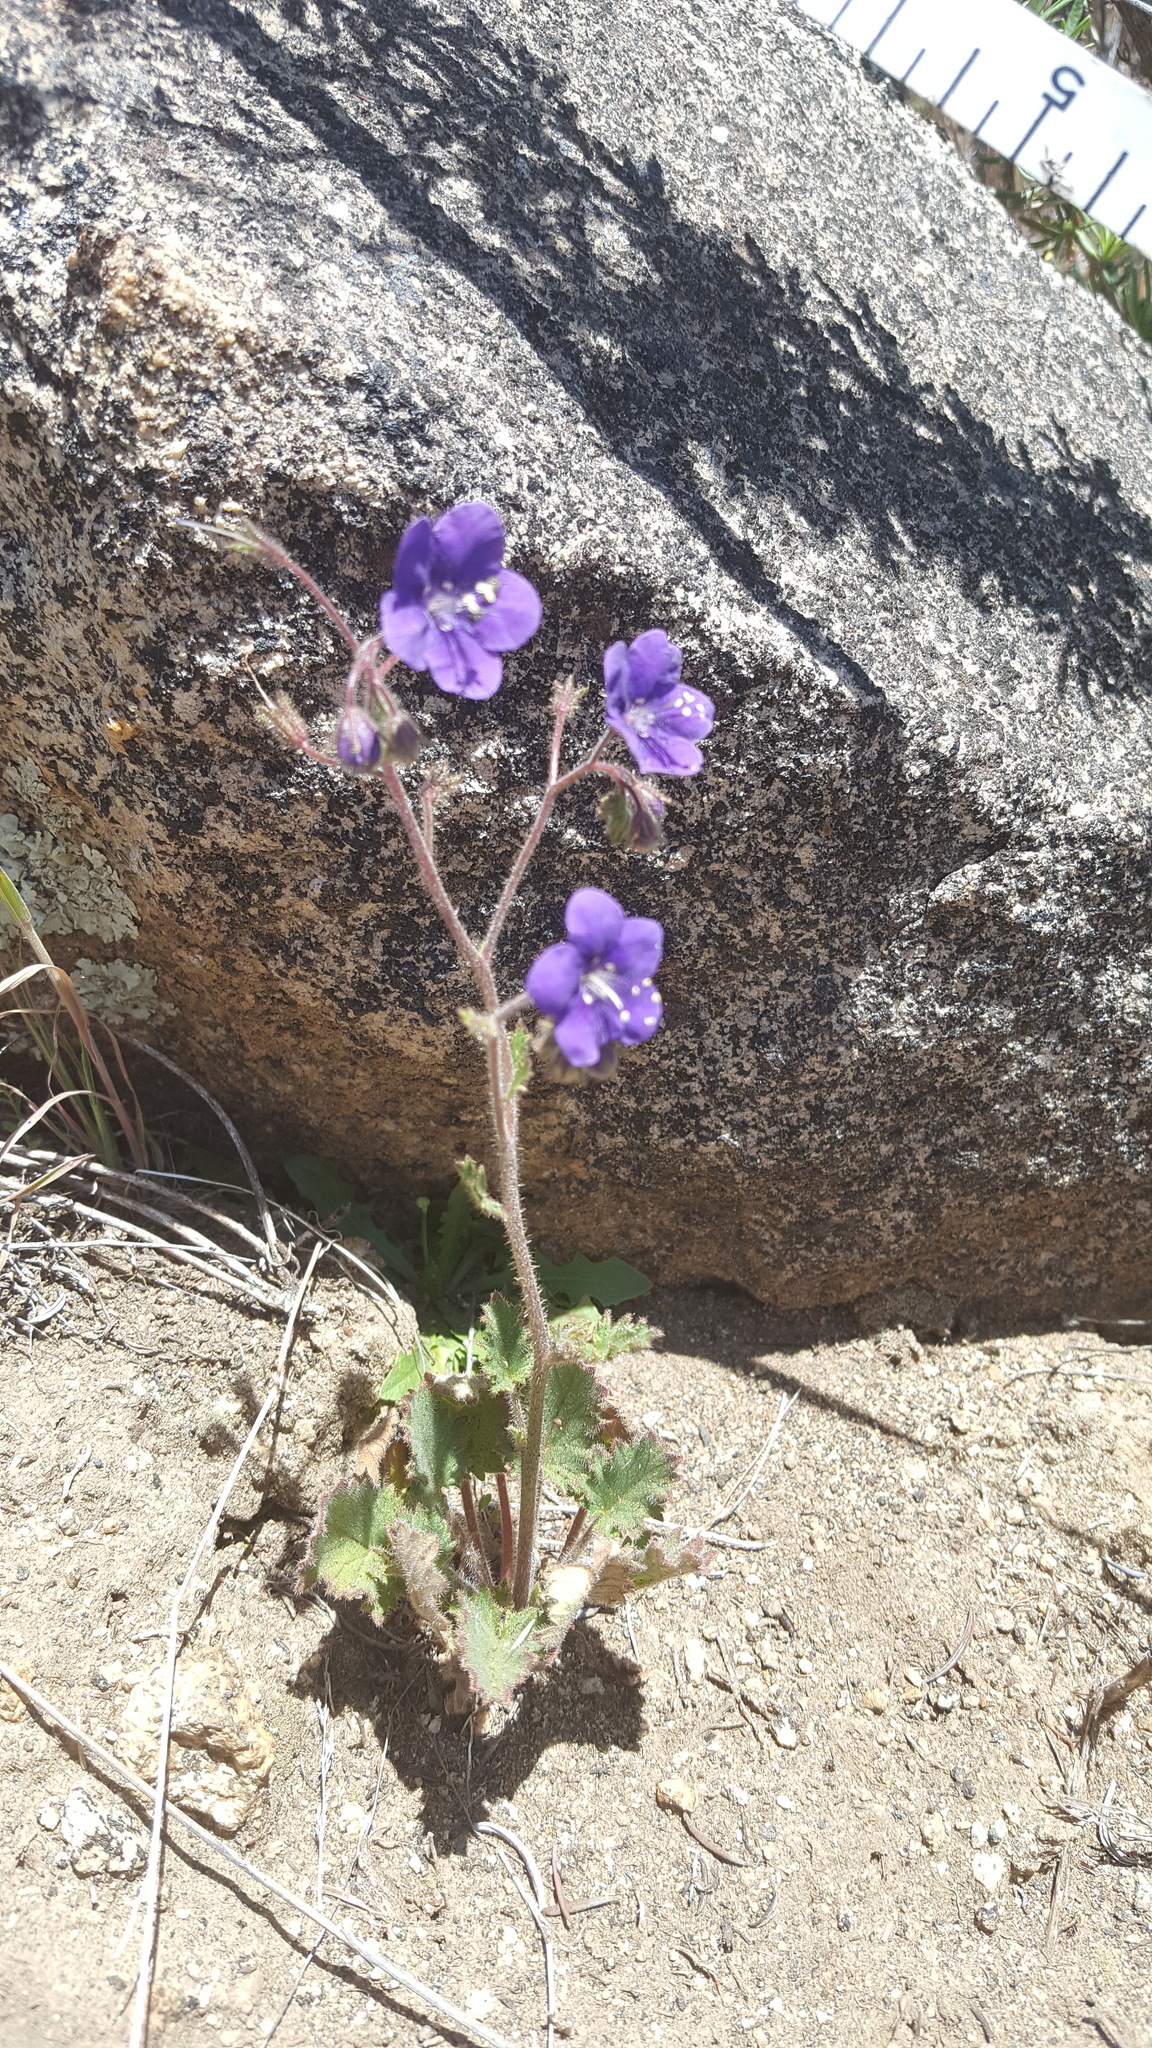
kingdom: Plantae
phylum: Tracheophyta
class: Magnoliopsida
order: Boraginales
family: Hydrophyllaceae
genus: Phacelia
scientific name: Phacelia parryi
